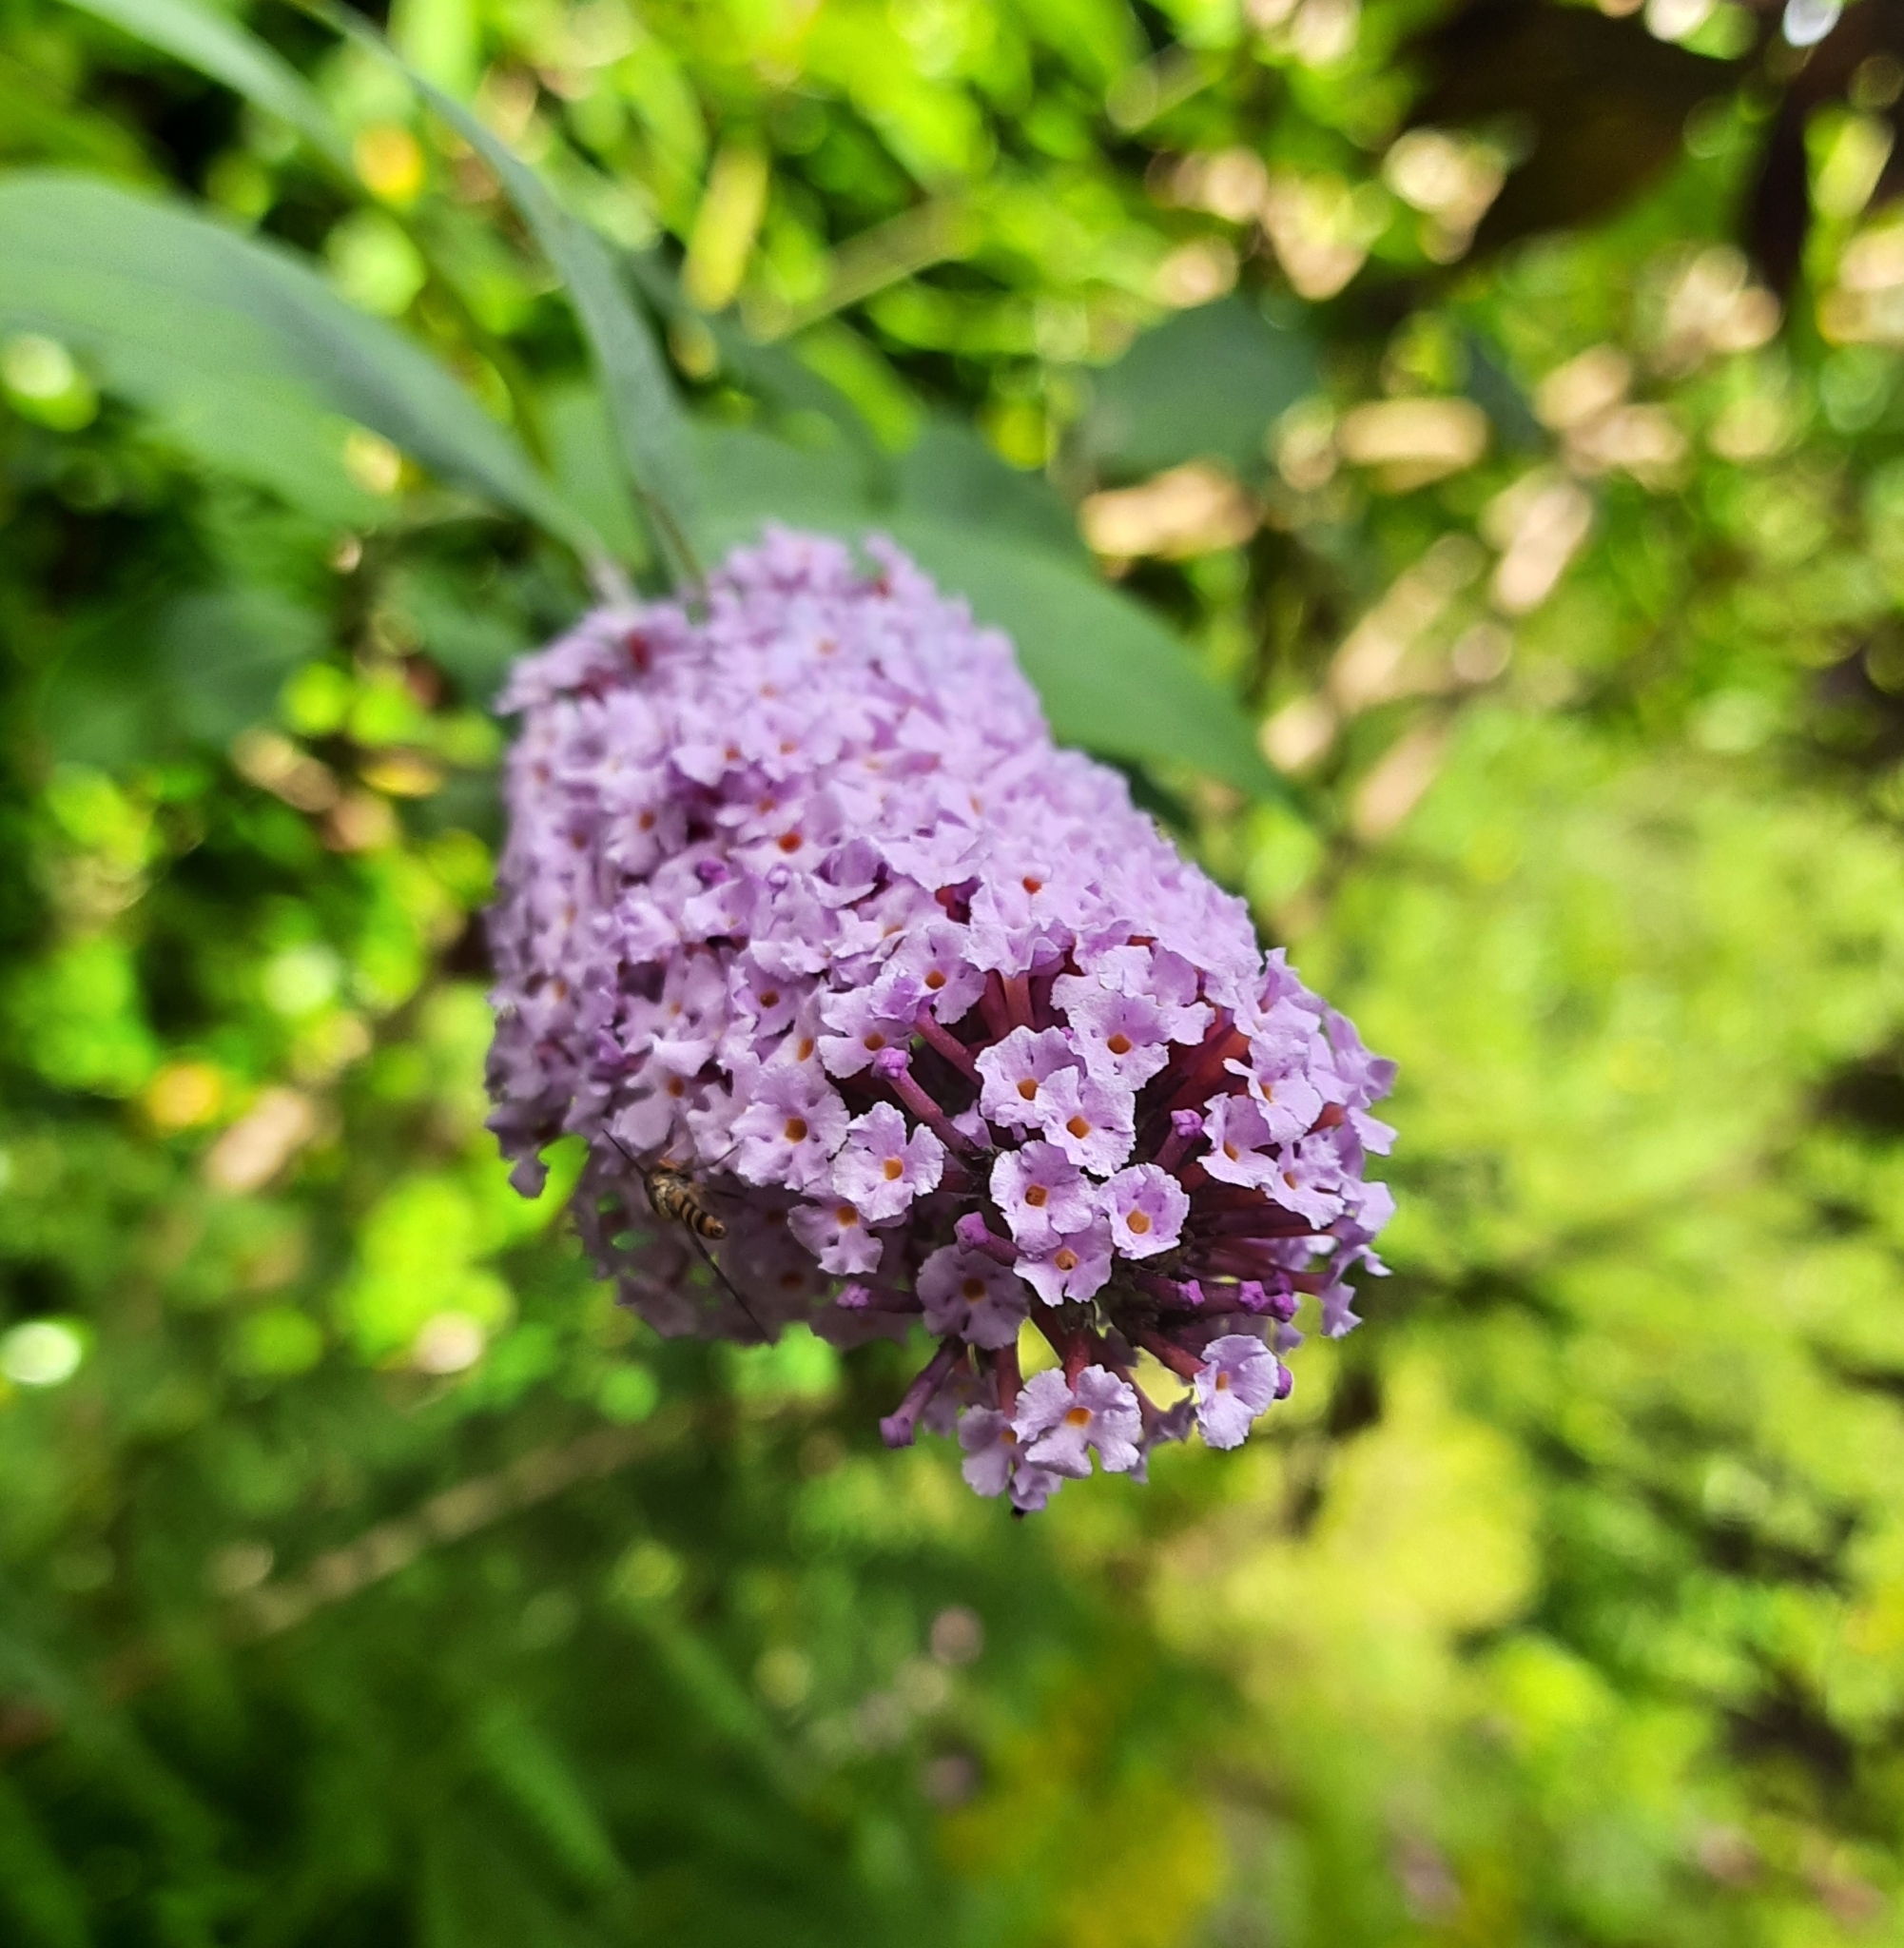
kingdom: Plantae
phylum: Tracheophyta
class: Magnoliopsida
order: Lamiales
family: Scrophulariaceae
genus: Buddleja
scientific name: Buddleja davidii
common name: Butterfly-bush
